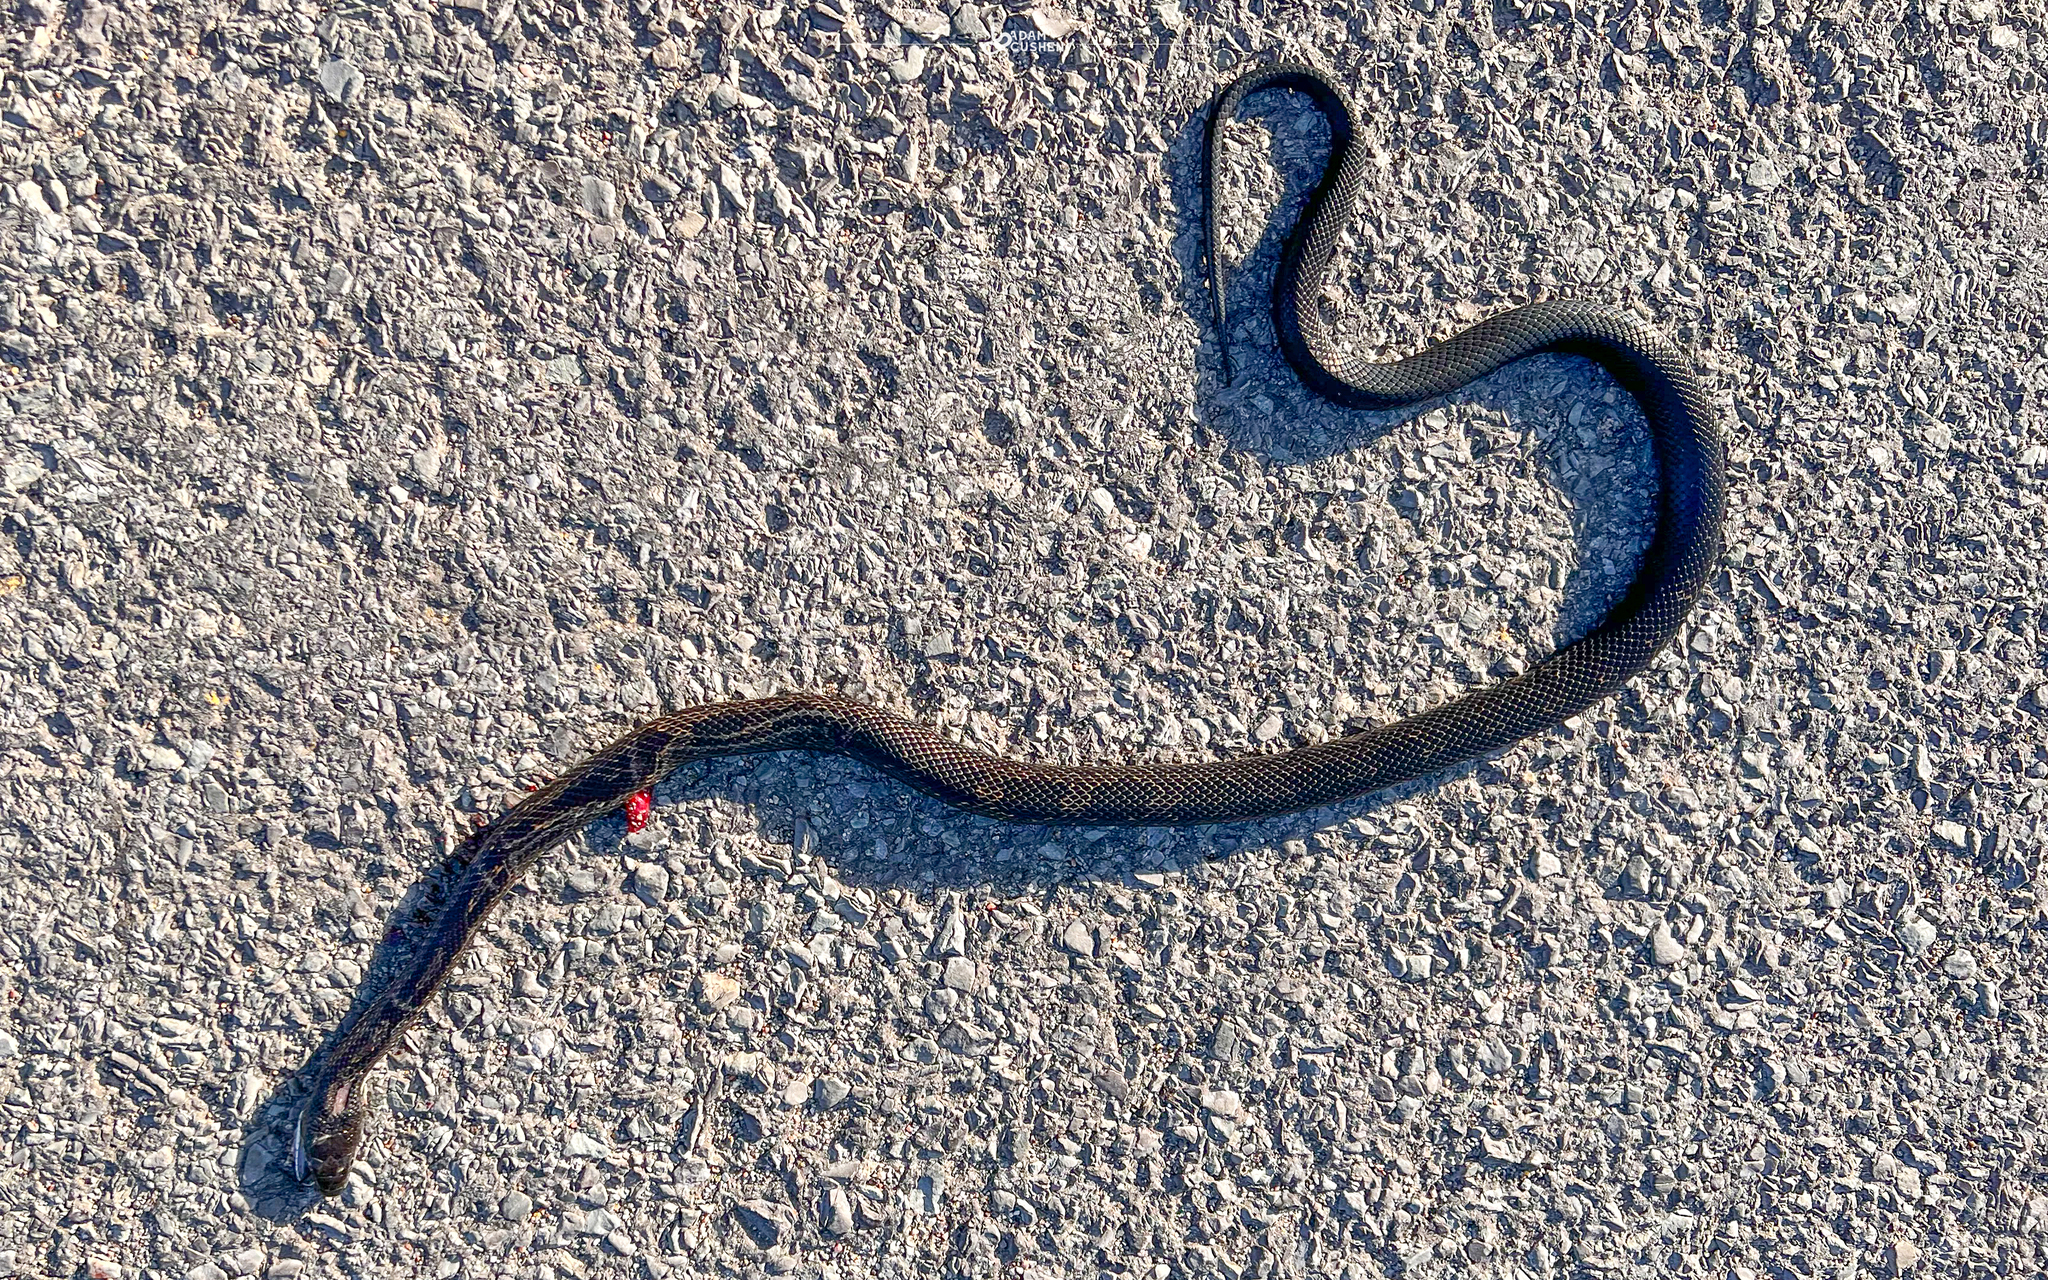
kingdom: Animalia
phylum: Chordata
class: Squamata
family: Colubridae
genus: Pantherophis
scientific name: Pantherophis spiloides
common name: Gray rat snake
